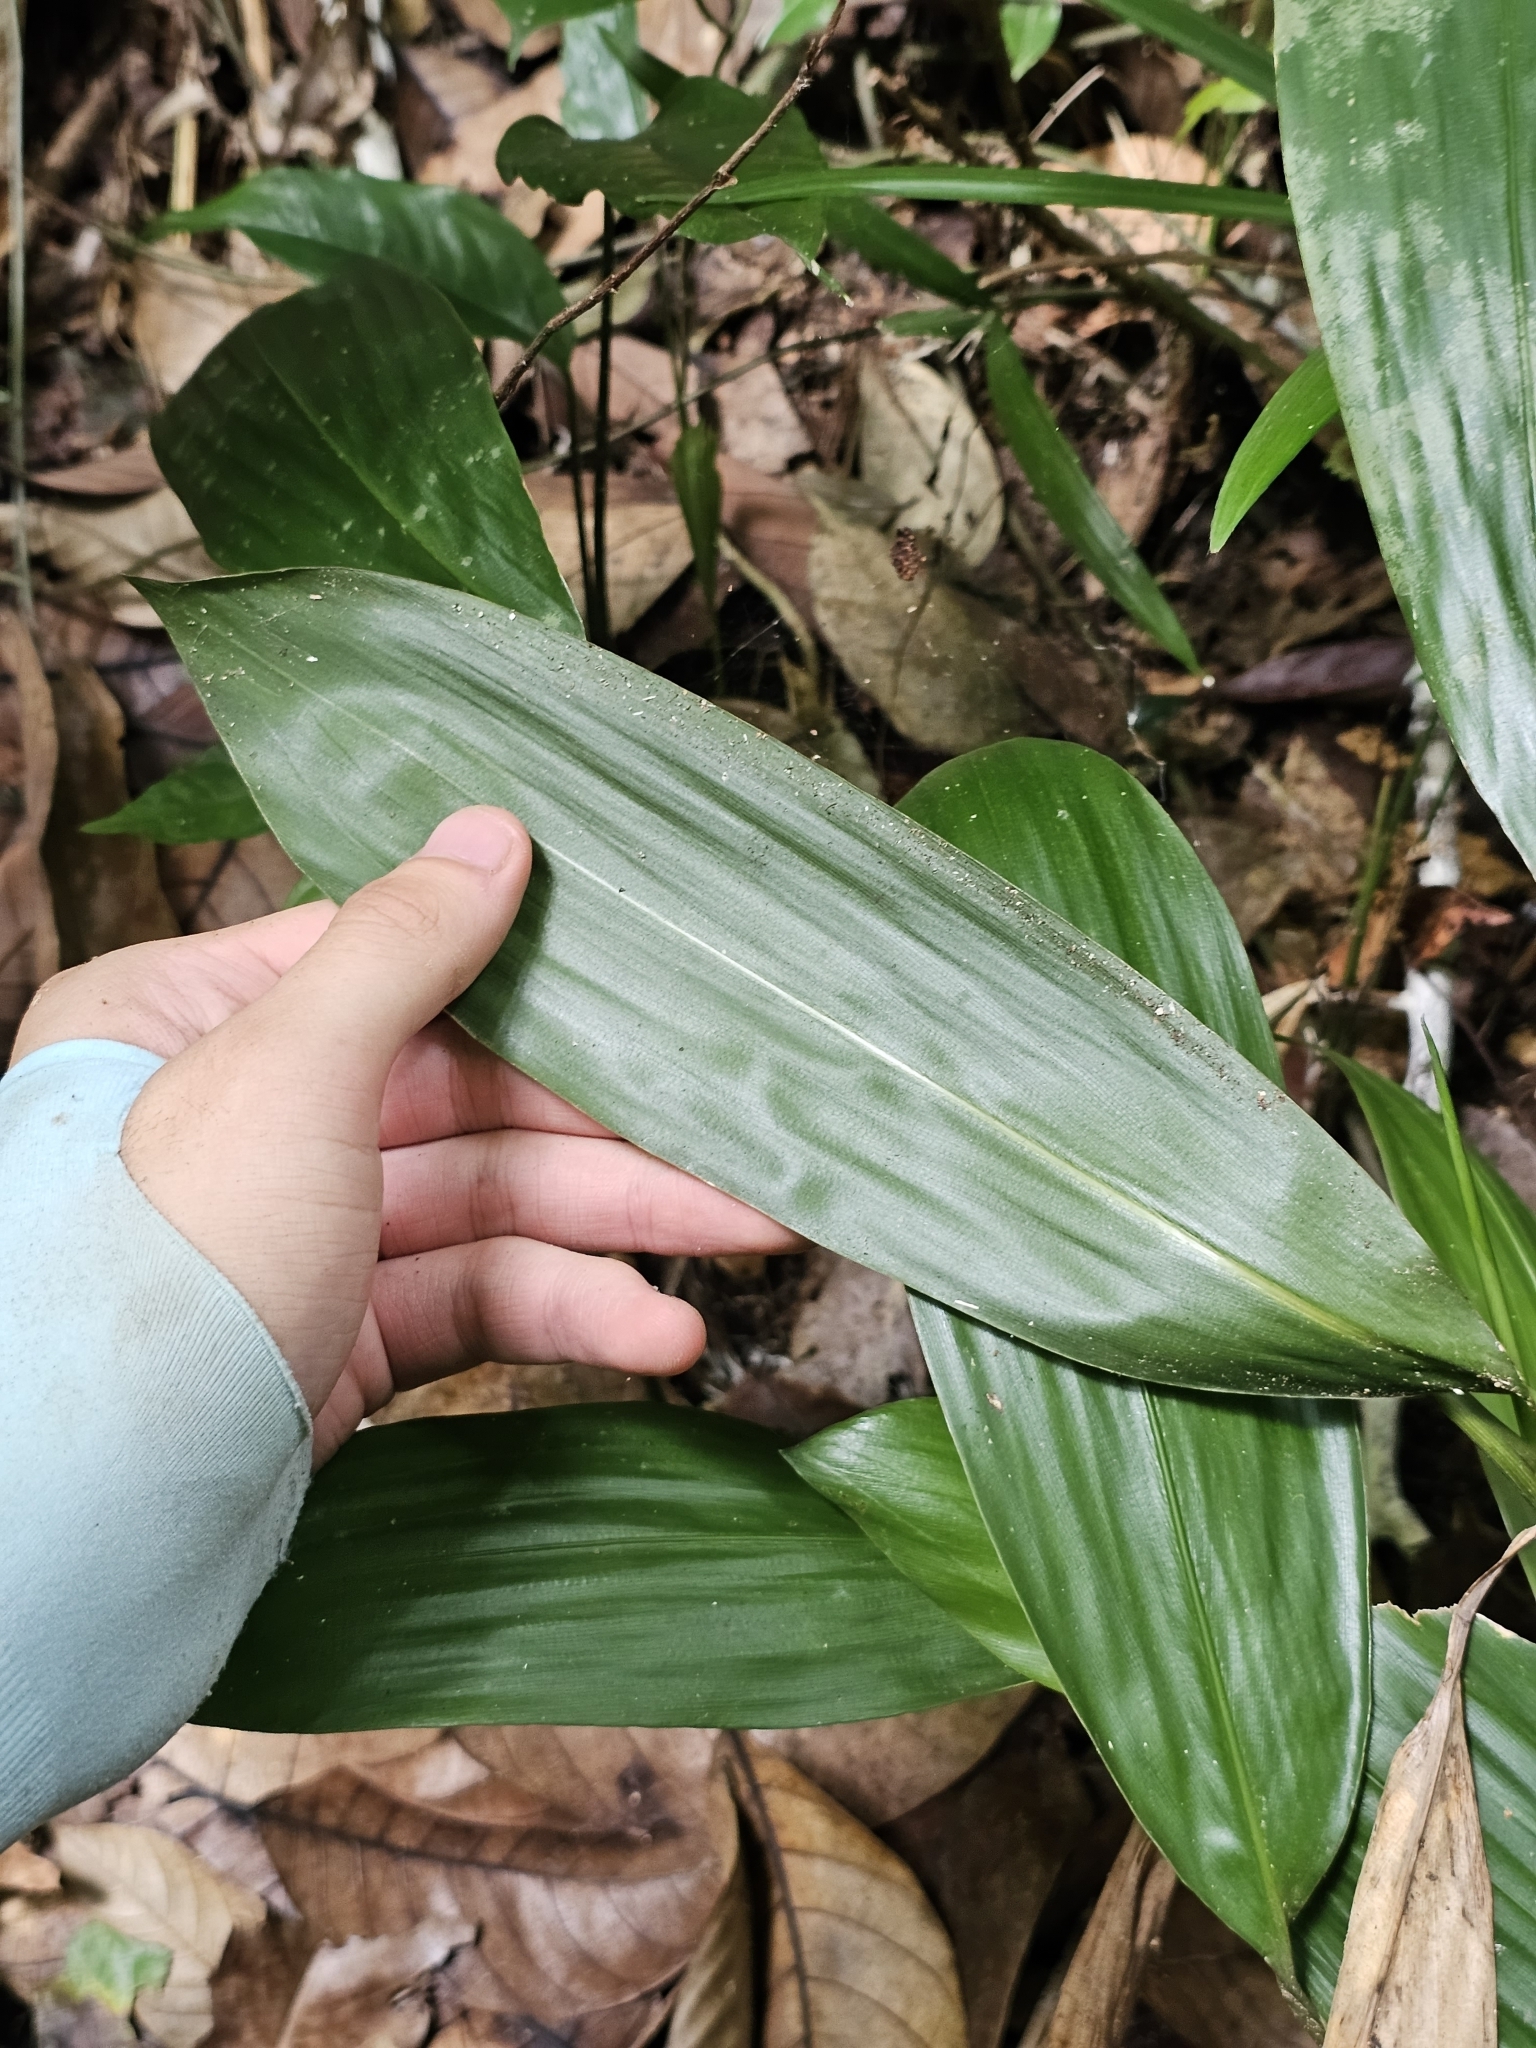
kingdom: Plantae
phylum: Tracheophyta
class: Liliopsida
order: Poales
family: Poaceae
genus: Scrotochloa
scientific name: Scrotochloa urceolata
